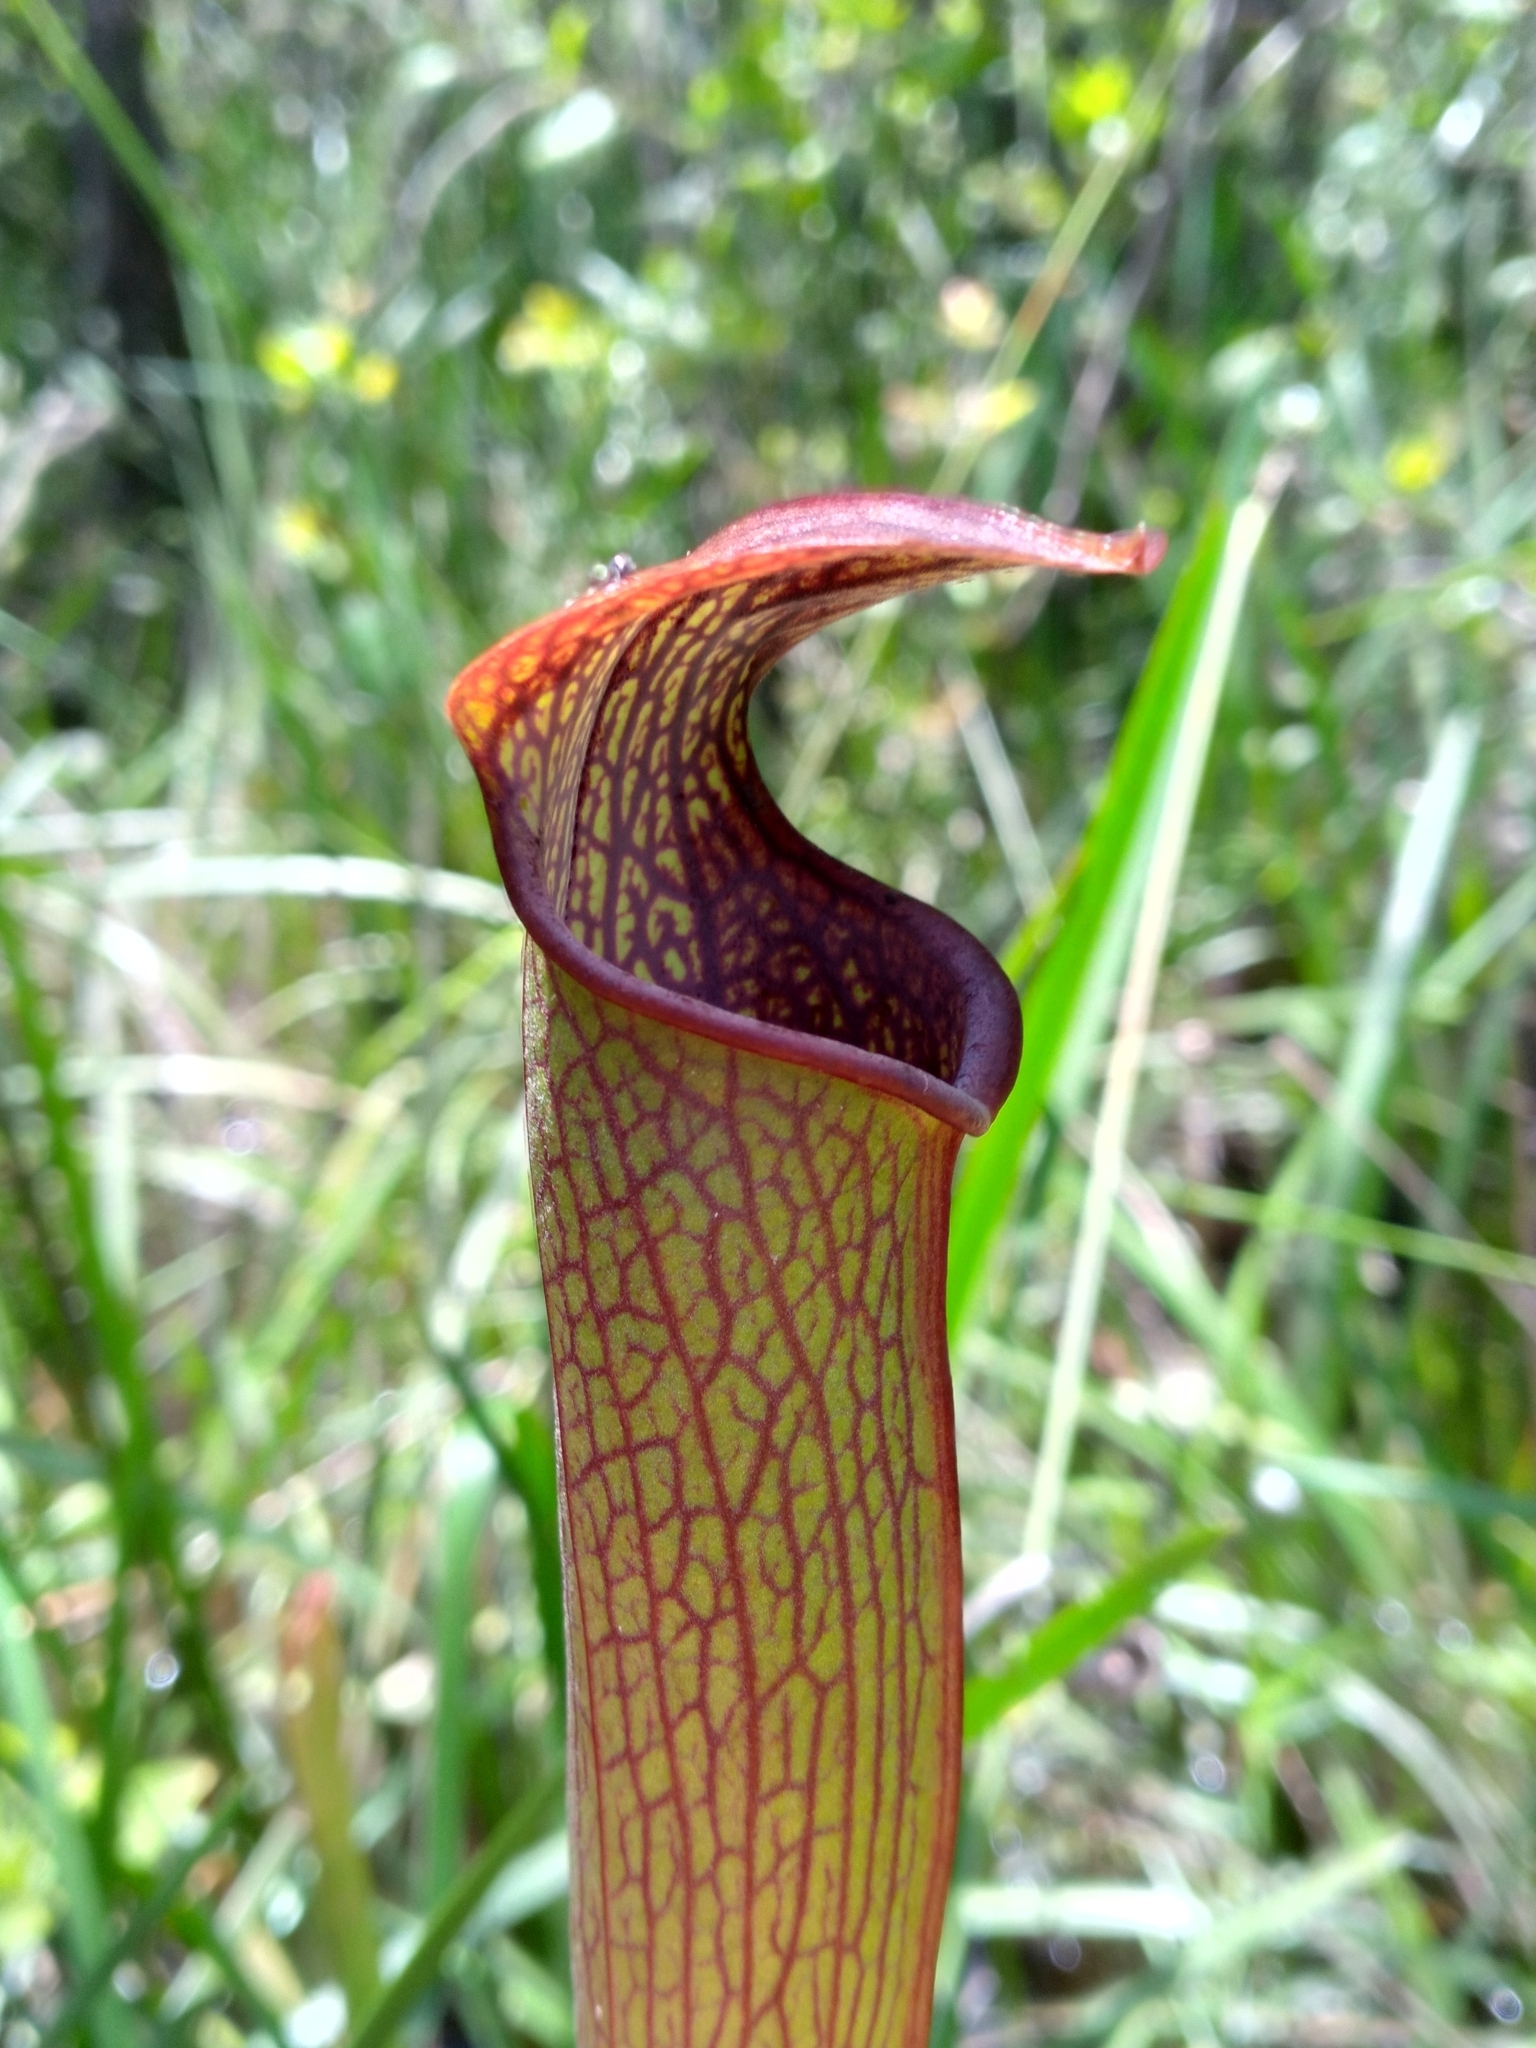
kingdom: Plantae
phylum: Tracheophyta
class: Magnoliopsida
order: Ericales
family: Sarraceniaceae
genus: Sarracenia
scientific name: Sarracenia rubra
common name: Sweet pitcherplant
